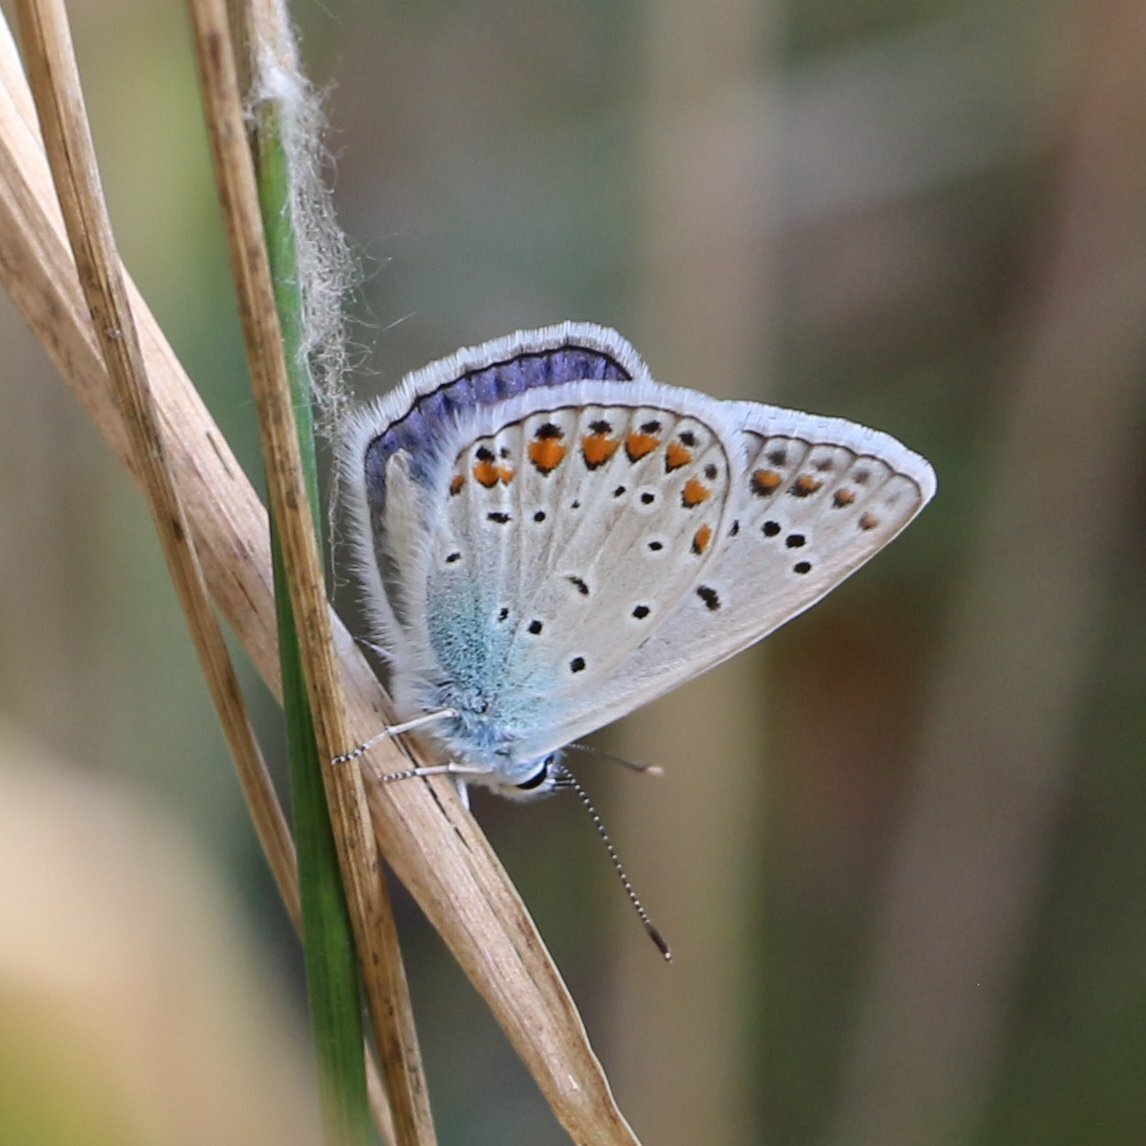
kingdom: Animalia
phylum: Arthropoda
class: Insecta
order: Lepidoptera
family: Lycaenidae
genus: Polyommatus
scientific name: Polyommatus icarus
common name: Common blue
